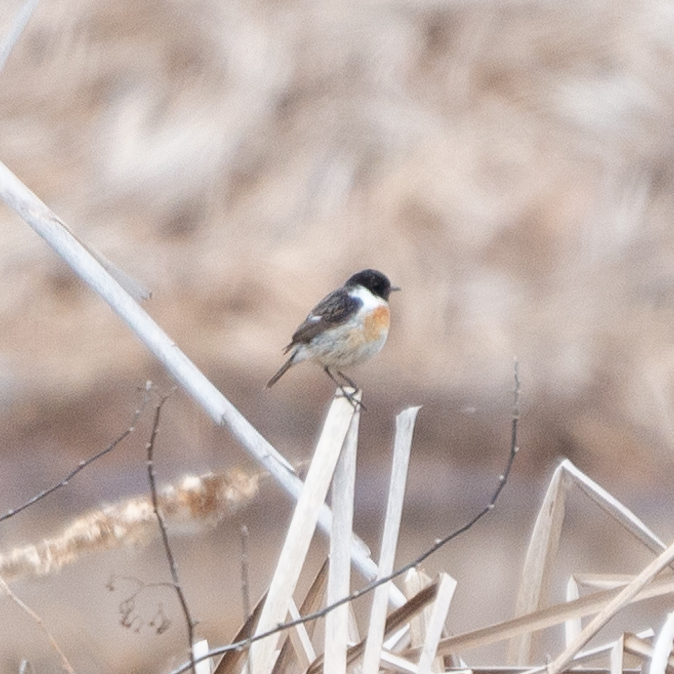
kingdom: Animalia
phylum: Chordata
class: Aves
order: Passeriformes
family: Muscicapidae
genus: Saxicola
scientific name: Saxicola rubicola
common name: European stonechat
